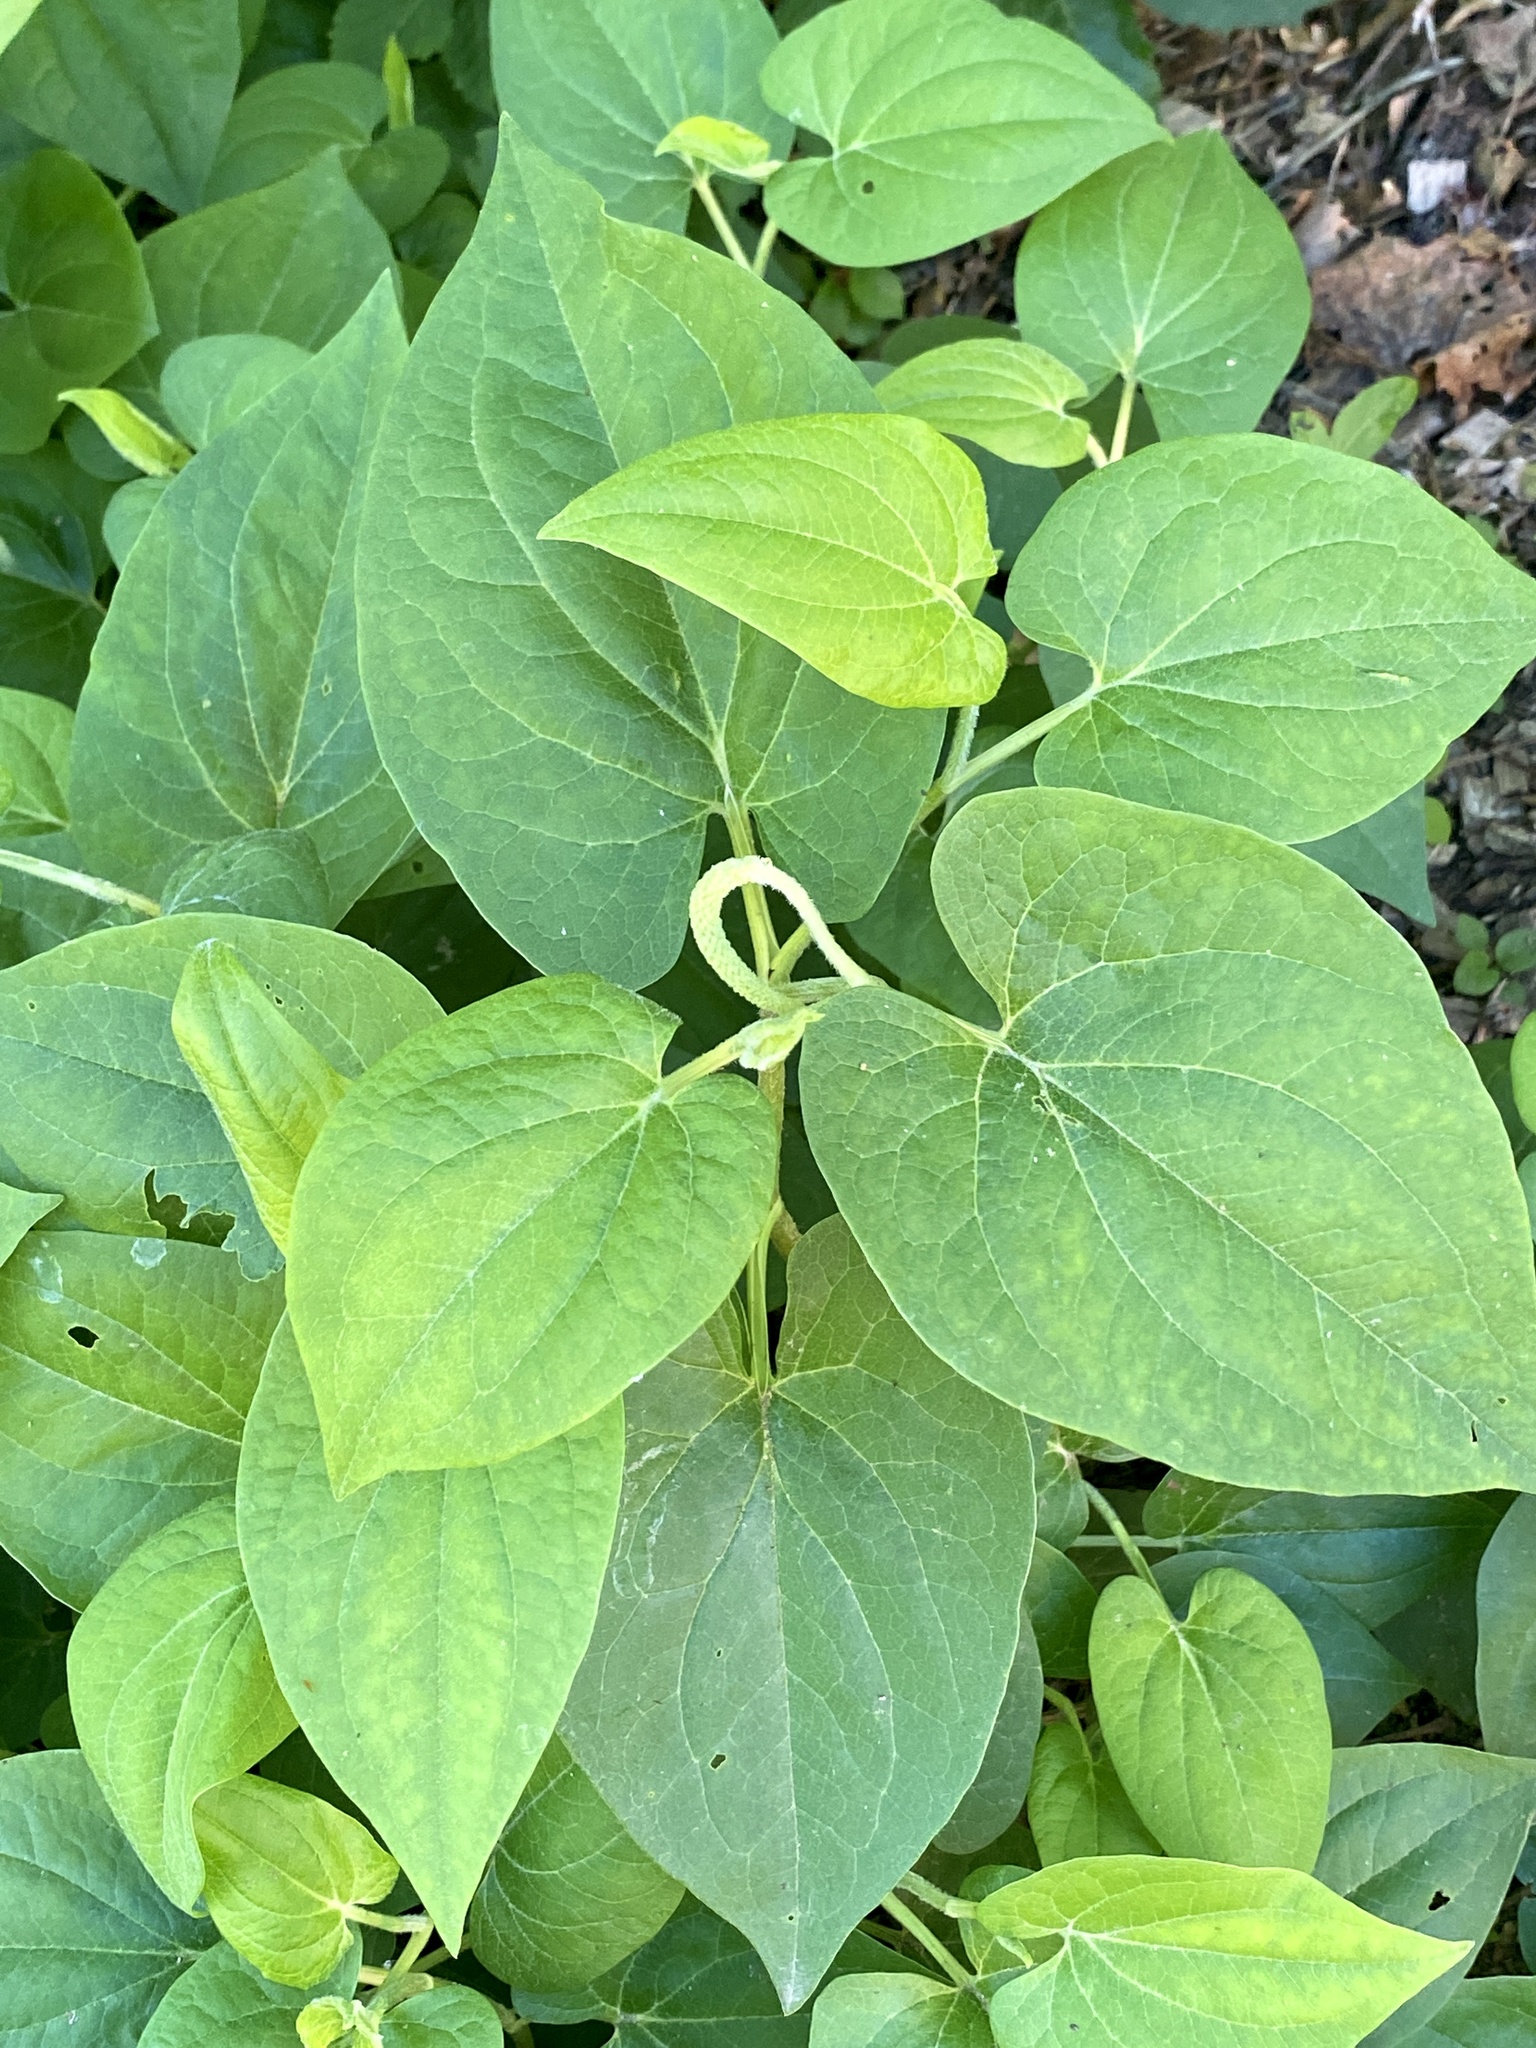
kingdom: Plantae
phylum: Tracheophyta
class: Magnoliopsida
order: Piperales
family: Saururaceae
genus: Saururus
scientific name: Saururus cernuus
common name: Lizard's-tail
